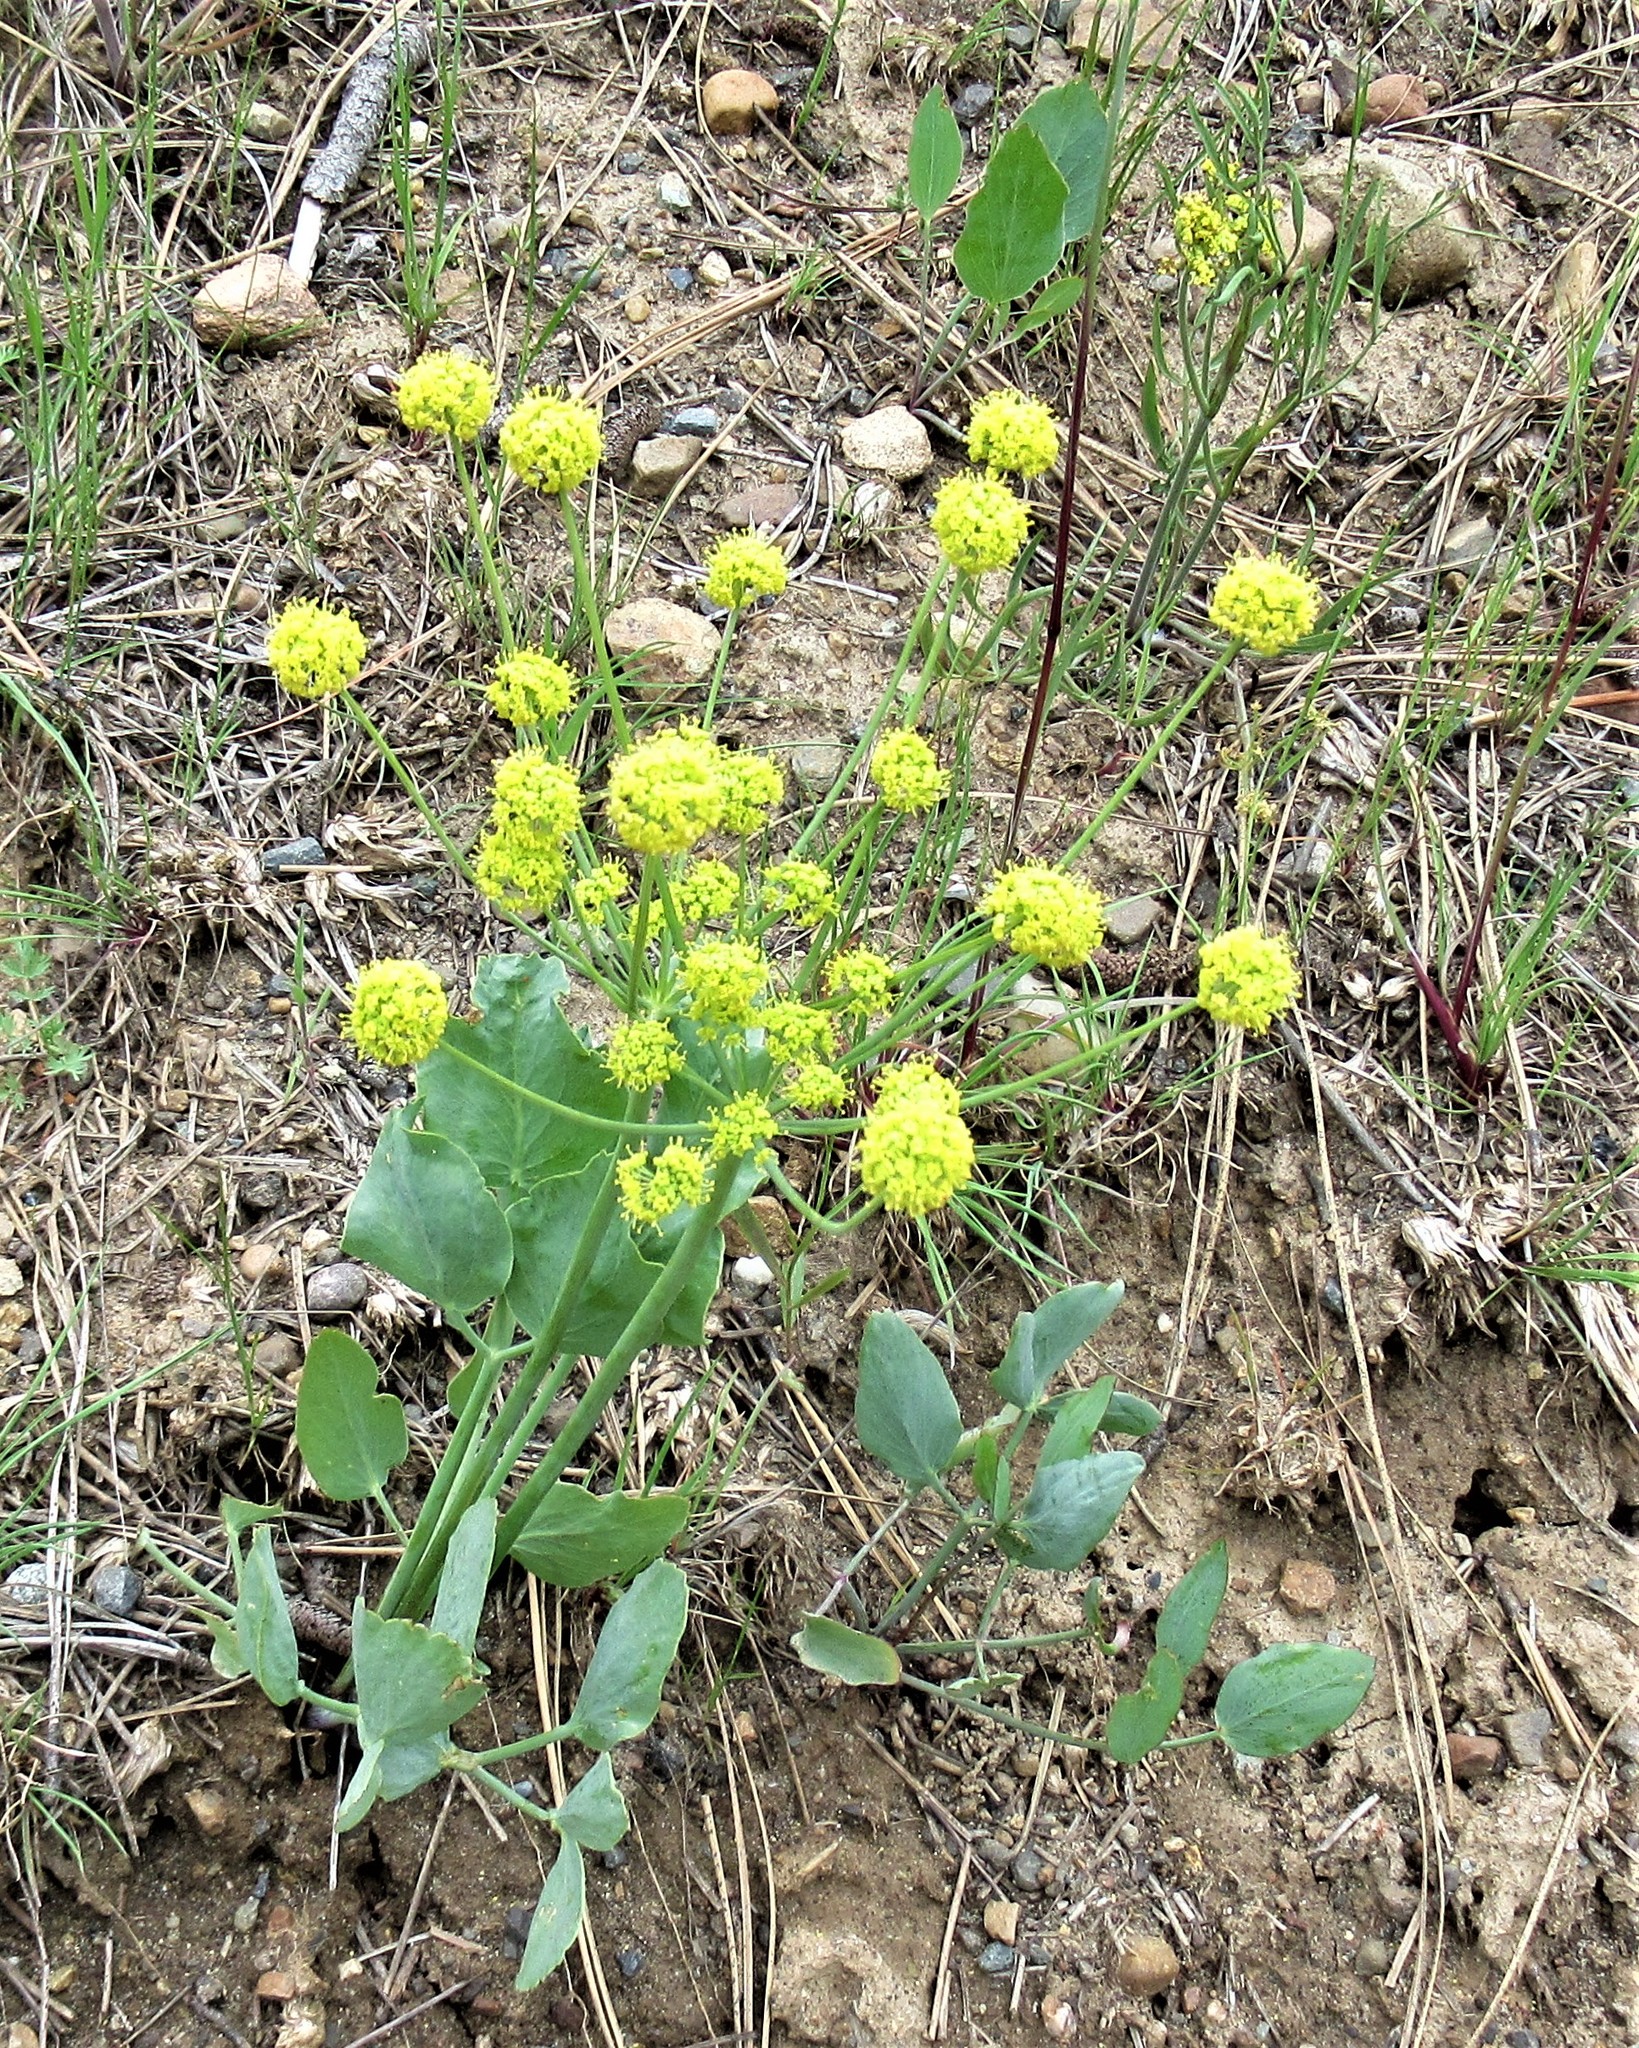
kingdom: Plantae
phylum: Tracheophyta
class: Magnoliopsida
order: Apiales
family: Apiaceae
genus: Lomatium
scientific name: Lomatium nudicaule
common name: Pestle lomatium
